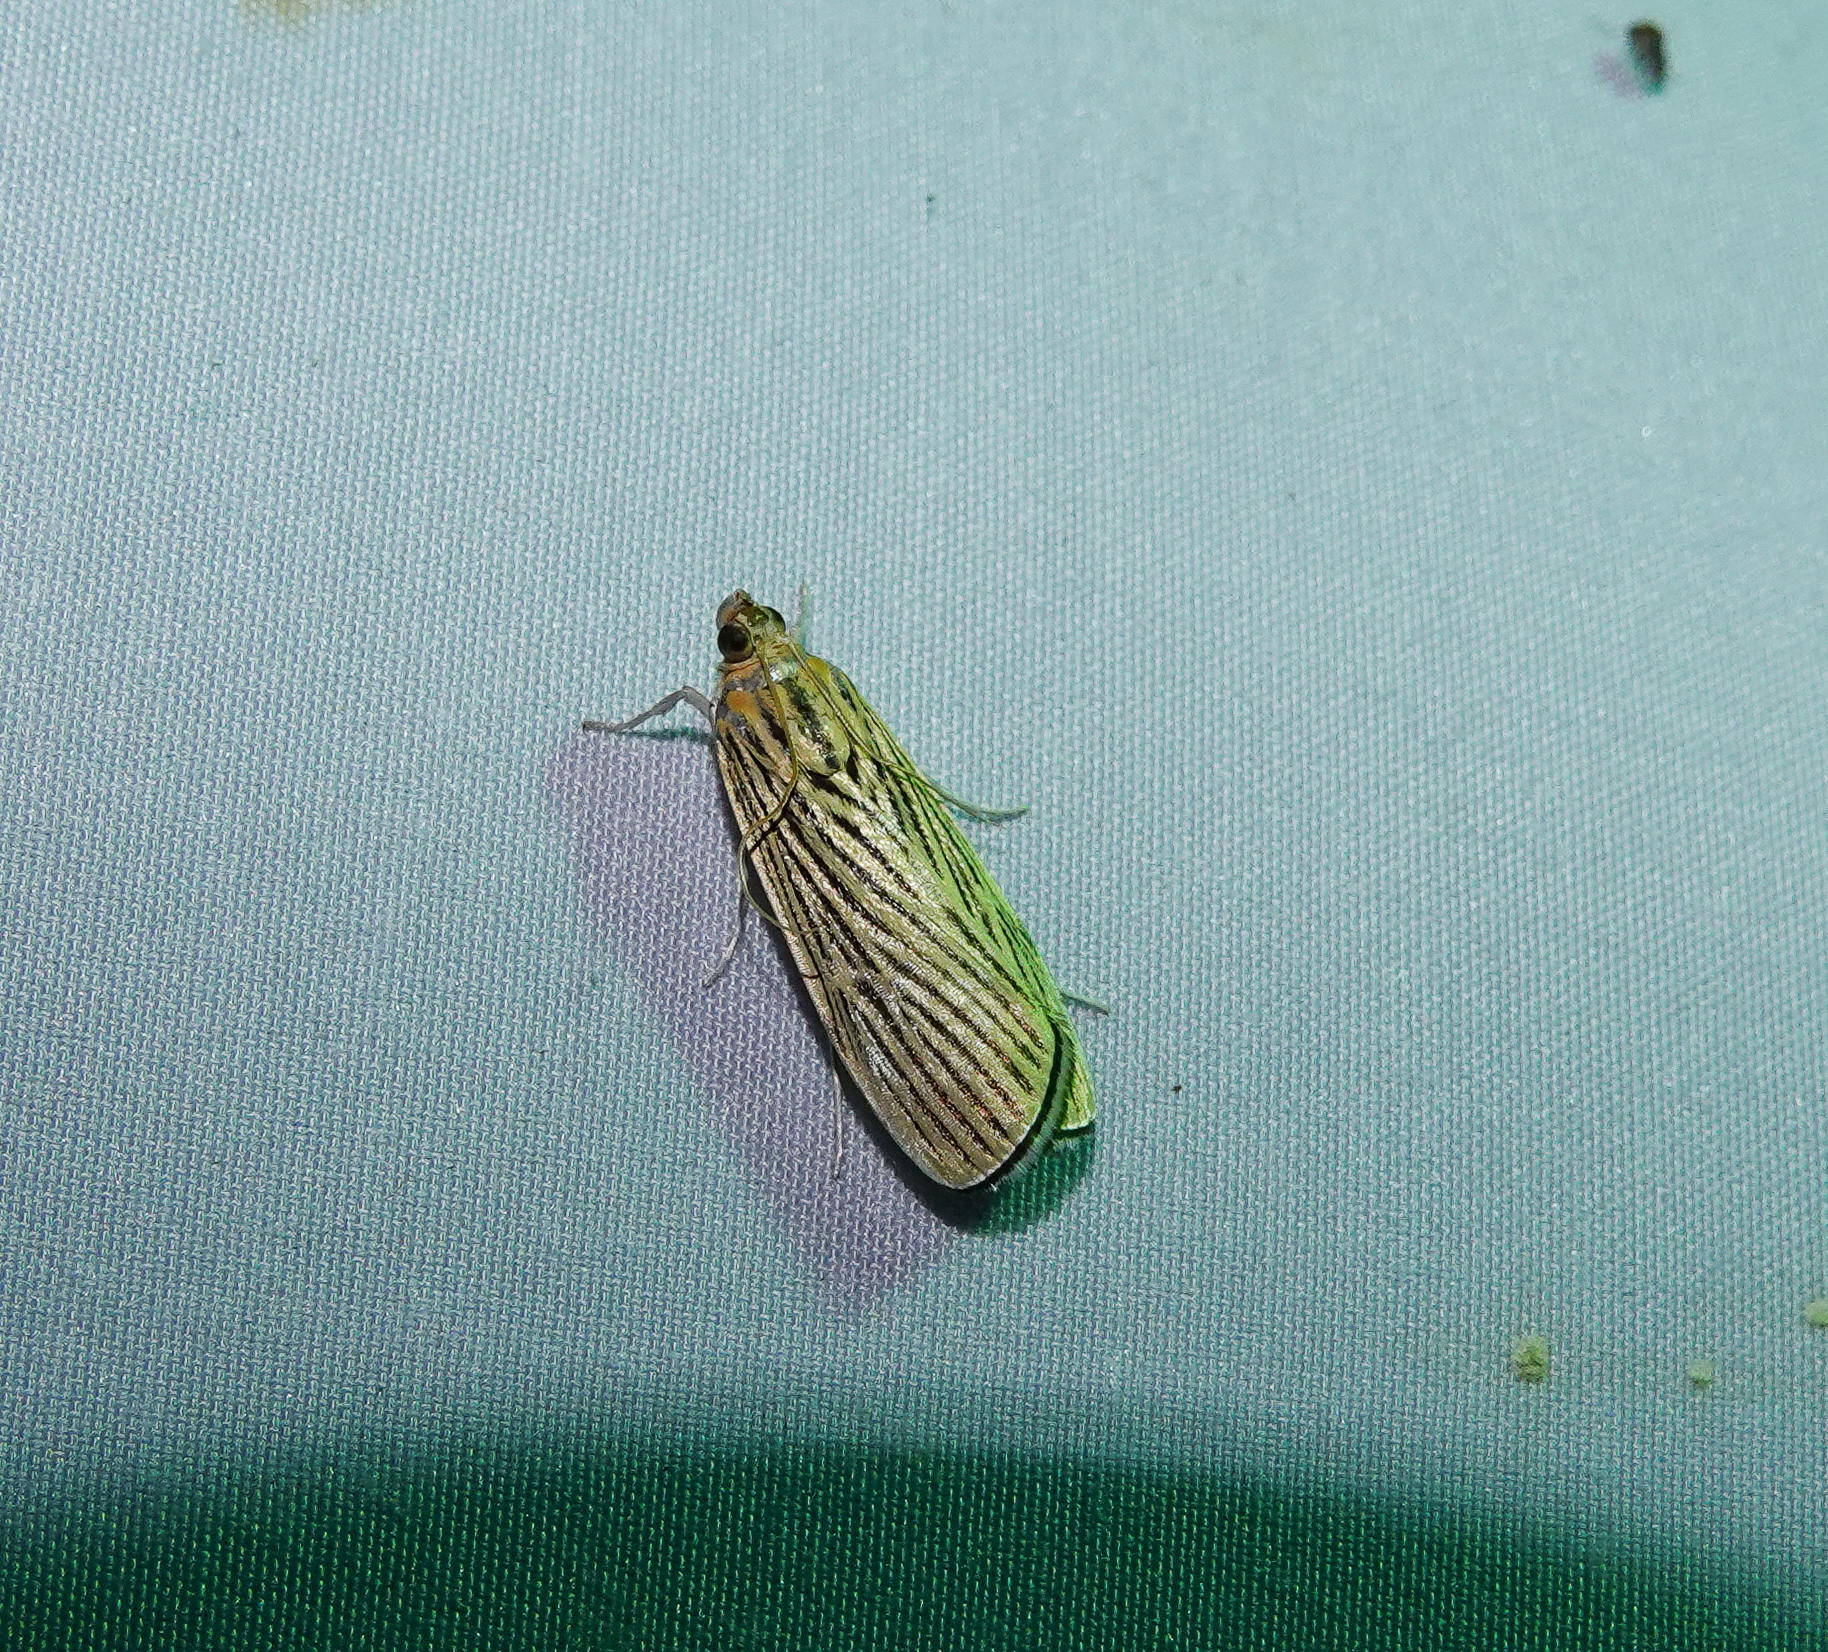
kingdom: Animalia
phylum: Arthropoda
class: Insecta
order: Lepidoptera
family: Crambidae
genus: Tyspanodes
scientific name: Tyspanodes linealis
